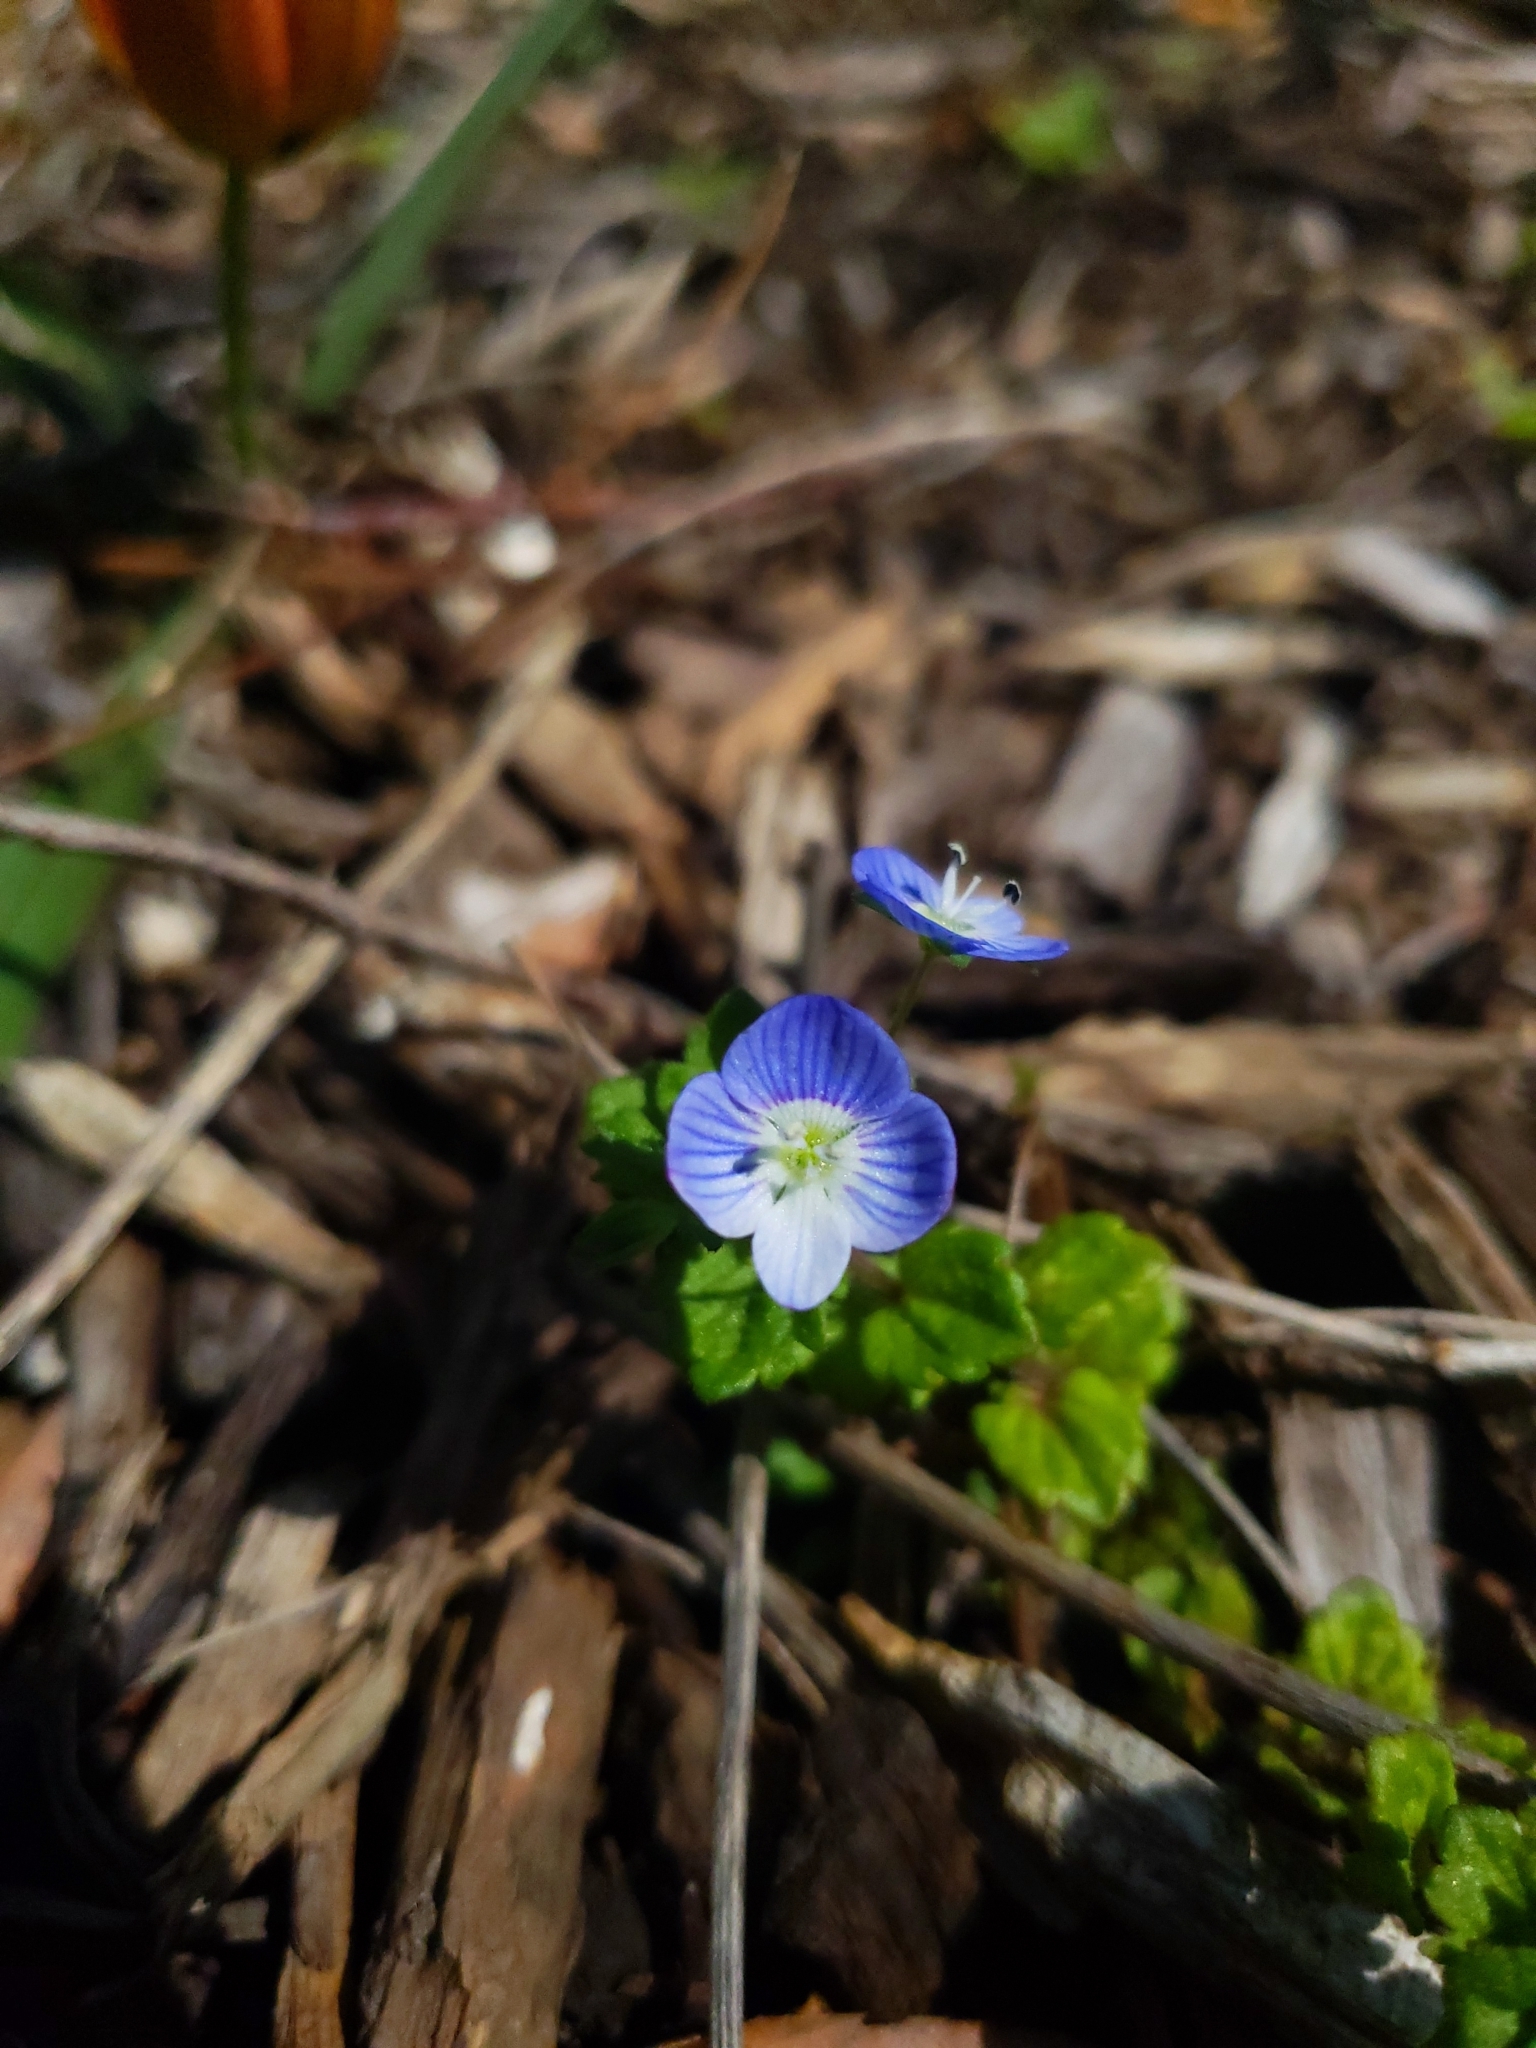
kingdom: Plantae
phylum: Tracheophyta
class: Magnoliopsida
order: Lamiales
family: Plantaginaceae
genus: Veronica
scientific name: Veronica persica
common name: Common field-speedwell
